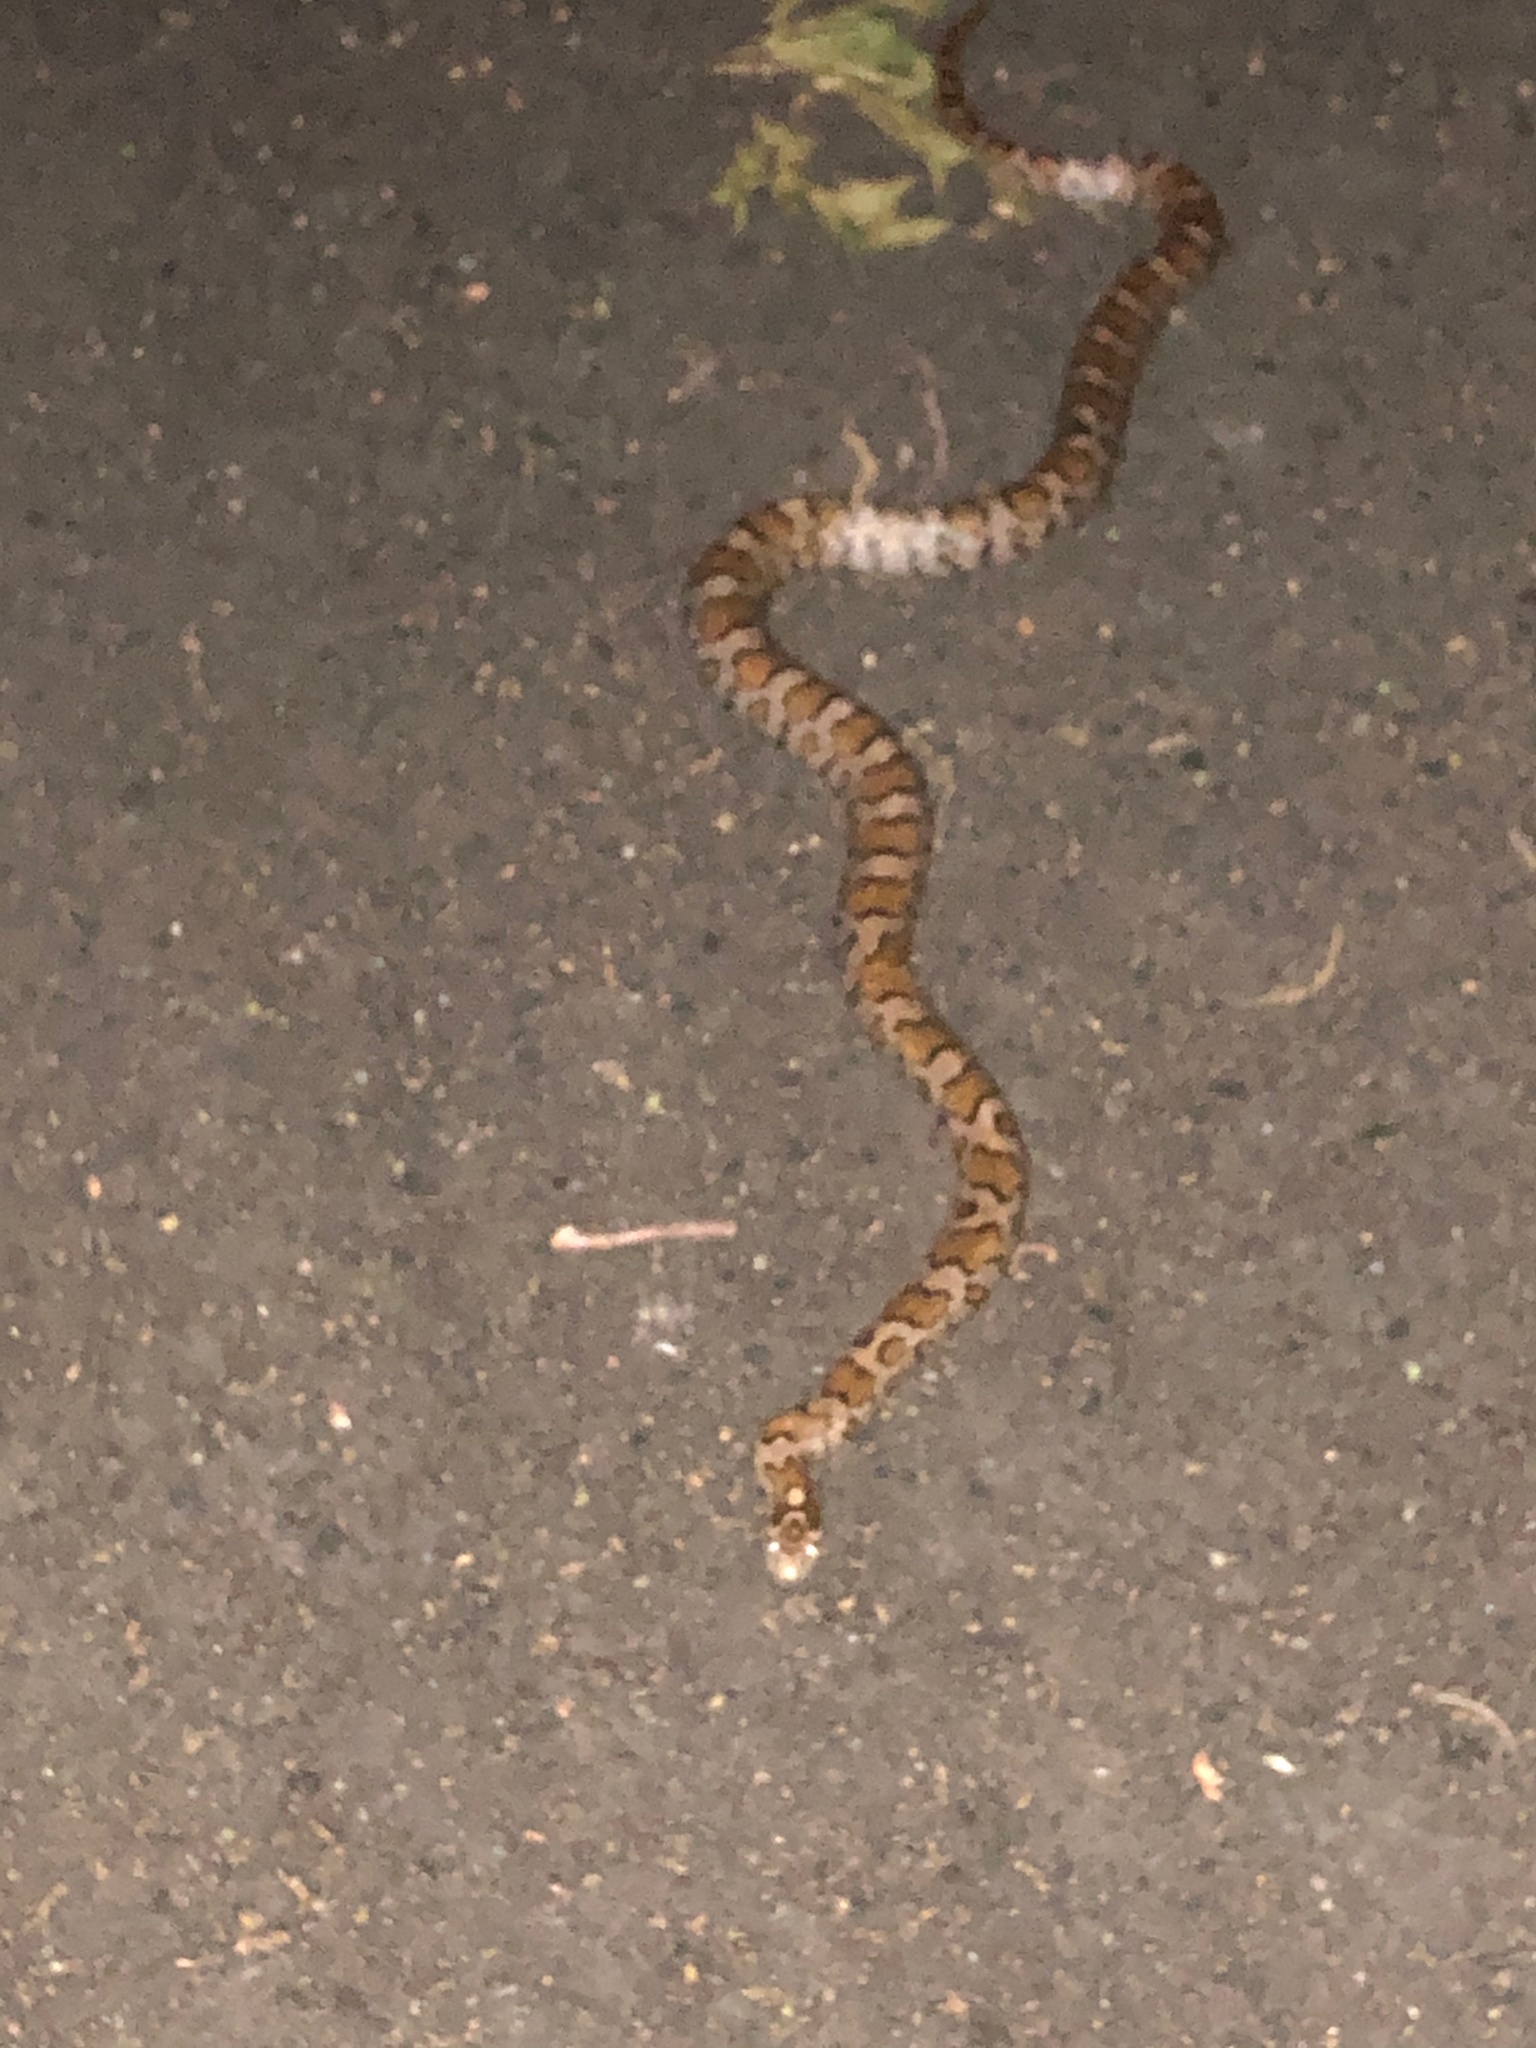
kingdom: Animalia
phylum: Chordata
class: Squamata
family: Colubridae
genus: Lampropeltis
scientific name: Lampropeltis triangulum
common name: Eastern milksnake
